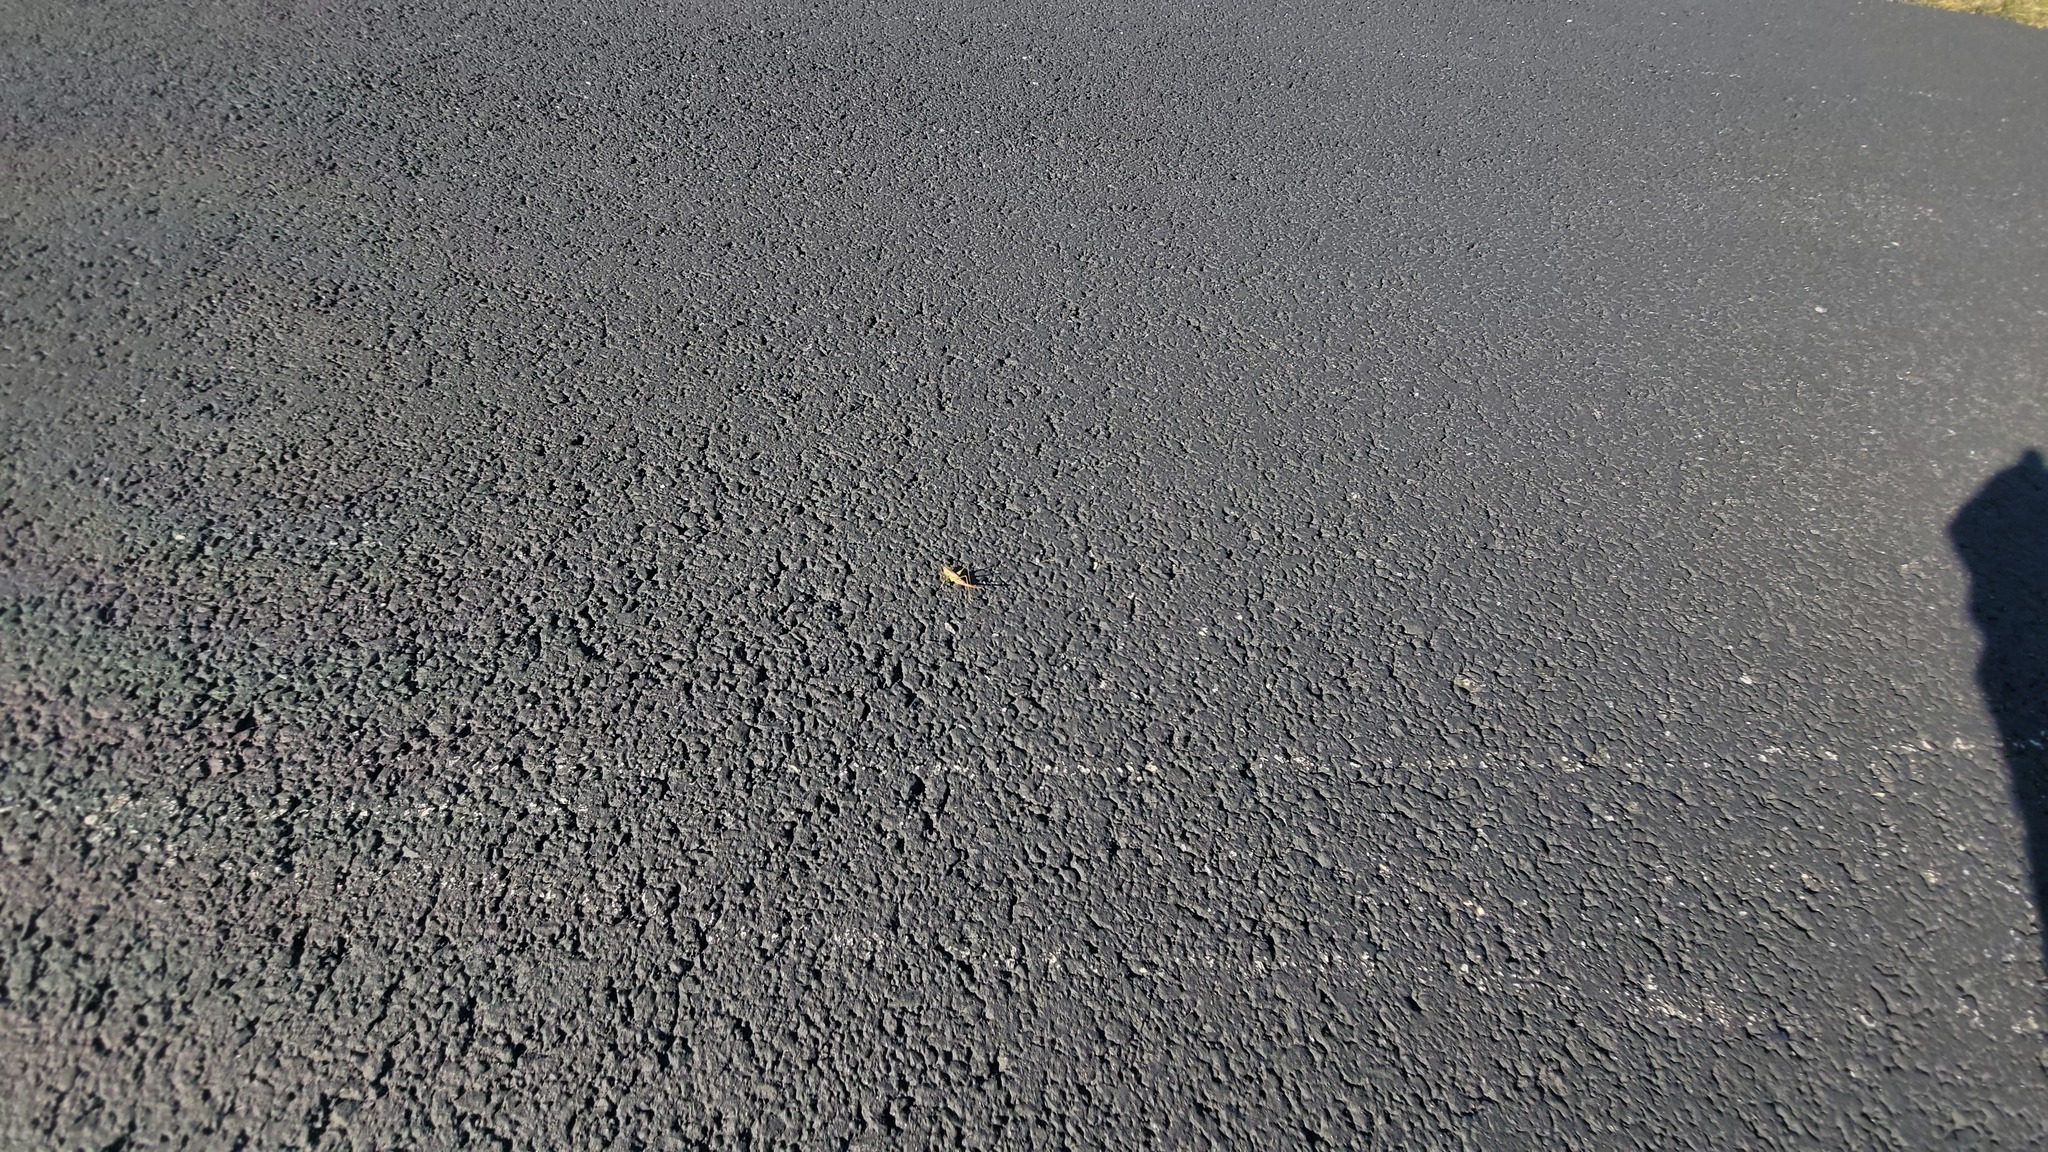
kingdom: Animalia
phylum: Arthropoda
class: Insecta
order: Orthoptera
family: Tettigoniidae
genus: Conocephalus
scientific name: Conocephalus brevipennis
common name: Short-winged meadow katydid
